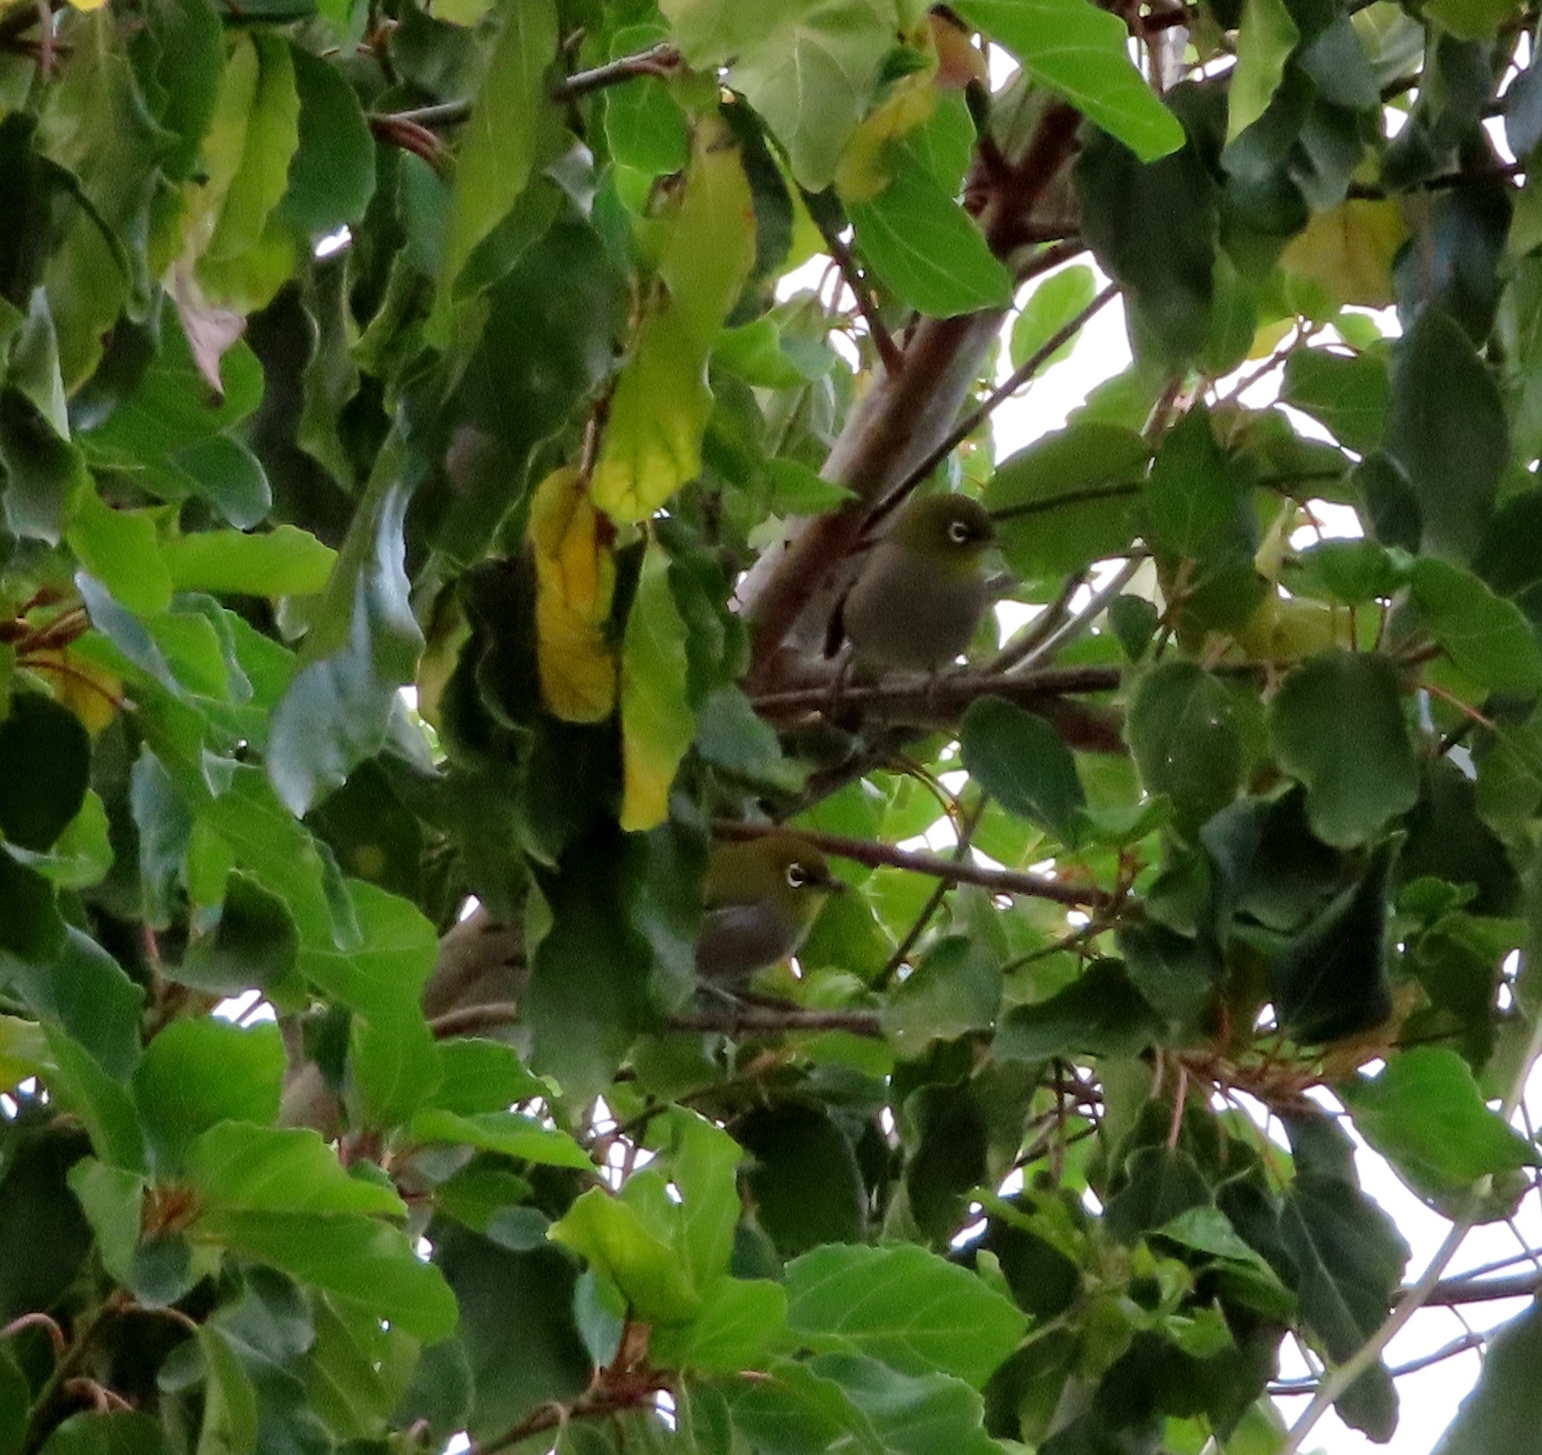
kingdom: Animalia
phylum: Chordata
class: Aves
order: Passeriformes
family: Zosteropidae
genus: Zosterops
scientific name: Zosterops virens
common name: Cape white-eye
